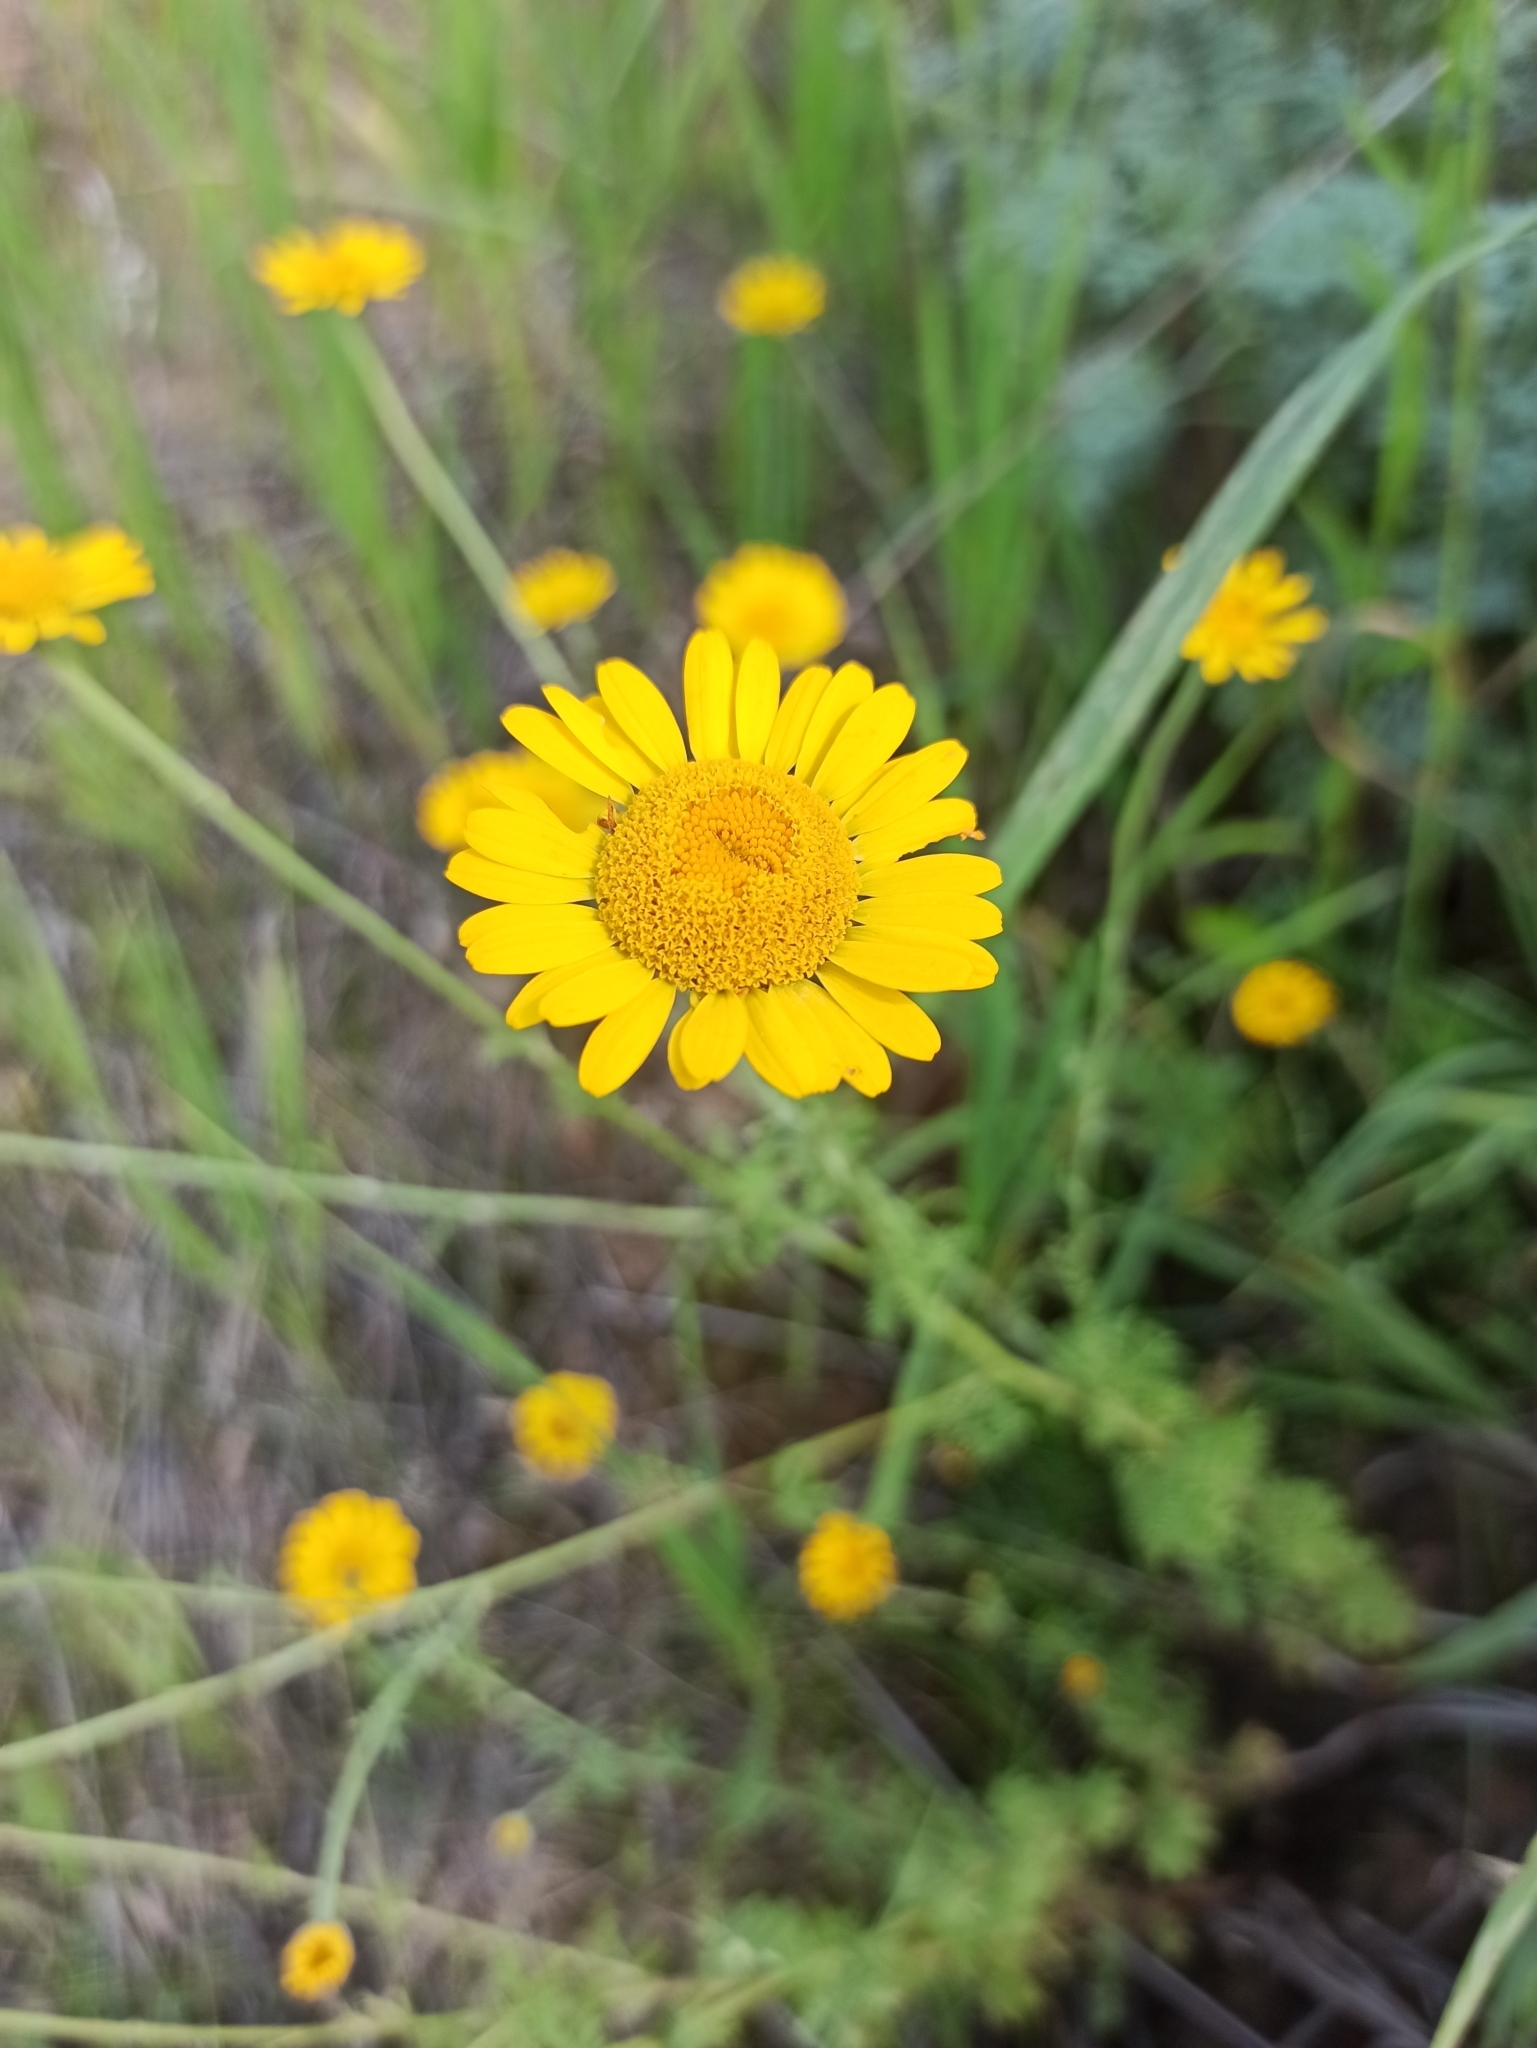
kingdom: Plantae
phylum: Tracheophyta
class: Magnoliopsida
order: Asterales
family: Asteraceae
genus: Cota
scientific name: Cota tinctoria
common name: Golden chamomile
